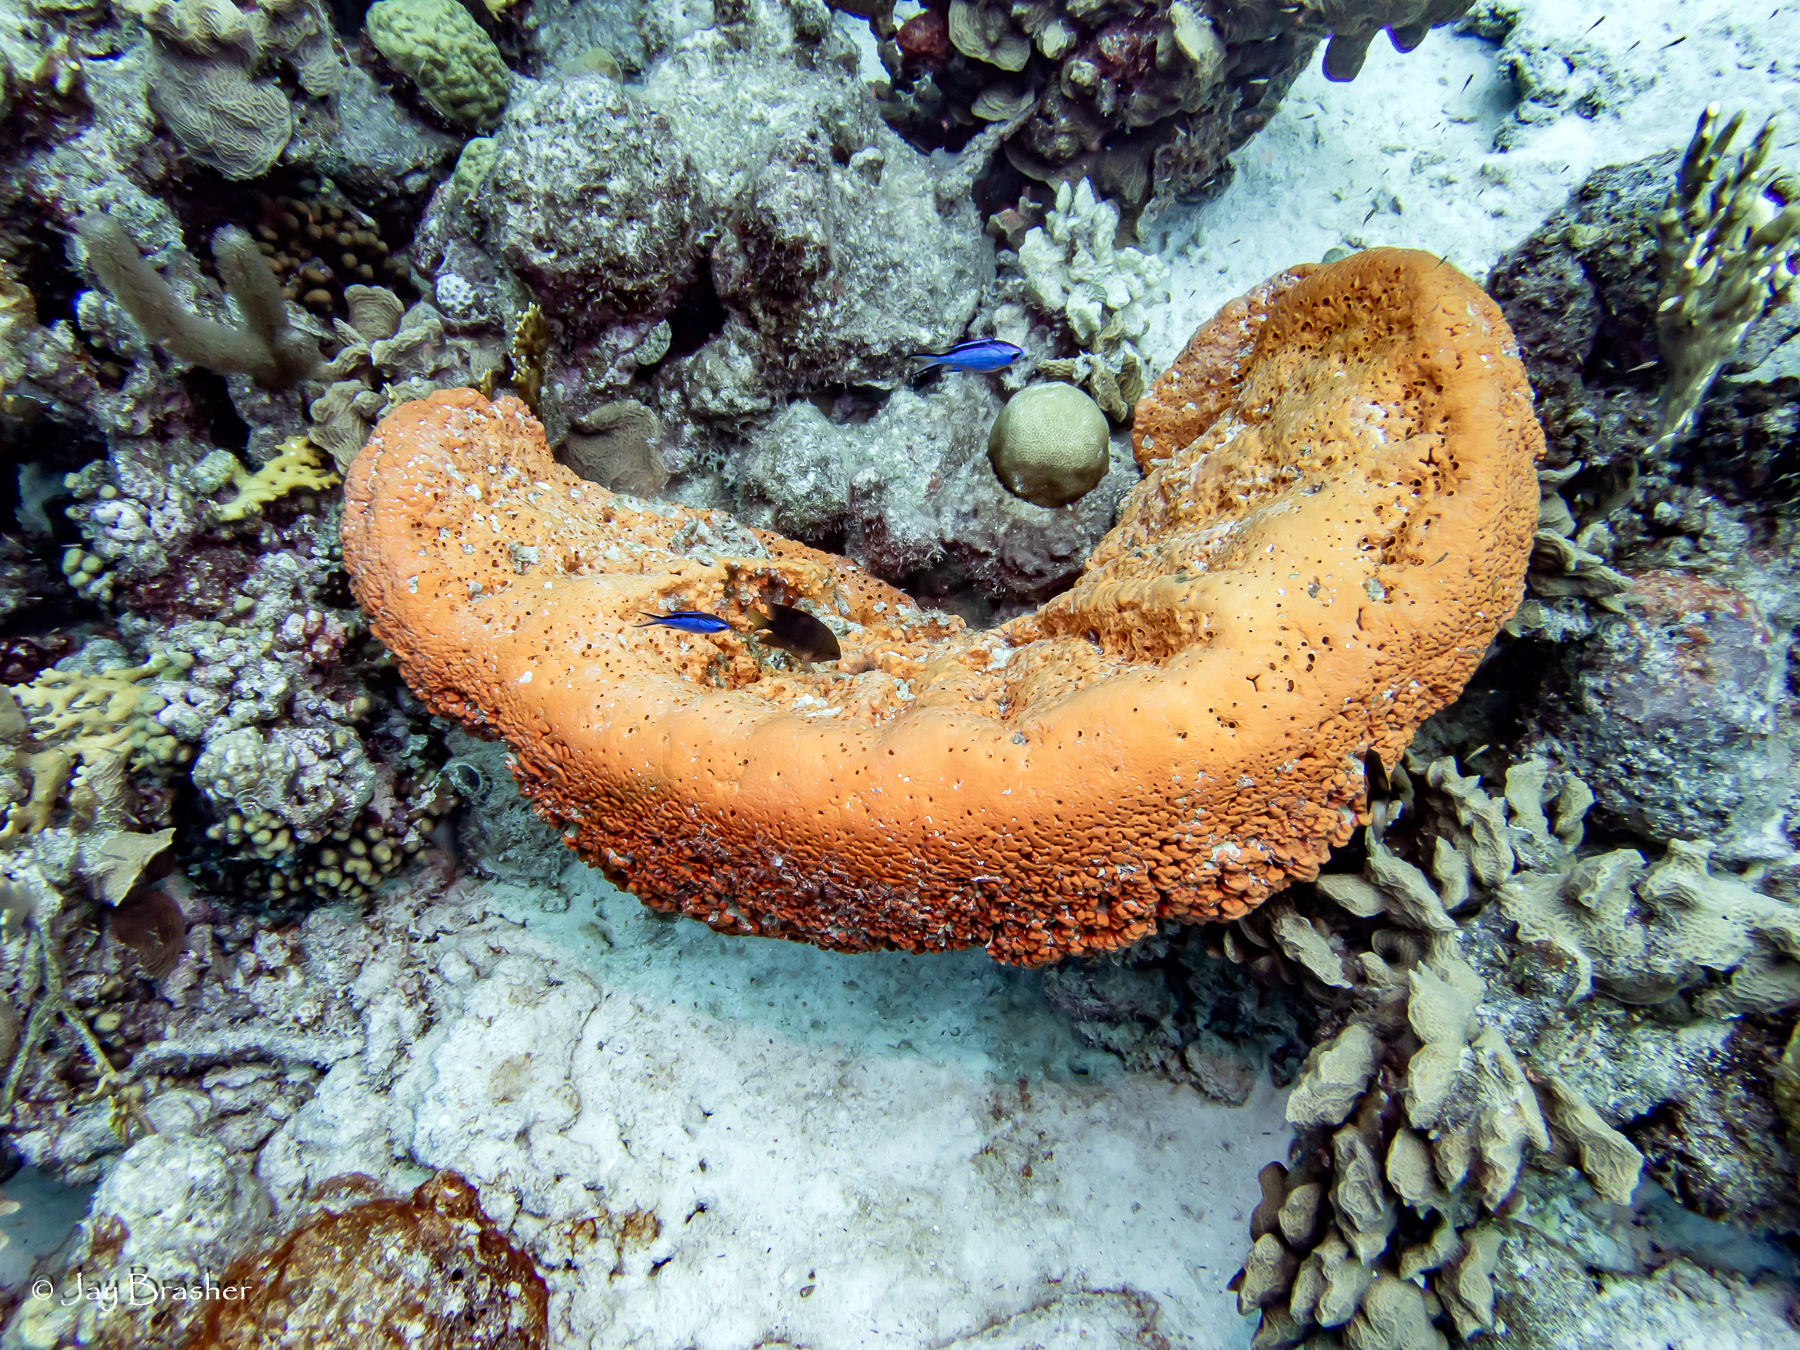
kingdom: Animalia
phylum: Porifera
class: Demospongiae
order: Agelasida
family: Agelasidae
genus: Agelas
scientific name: Agelas clathrodes
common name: Orange elephant ear sponge
